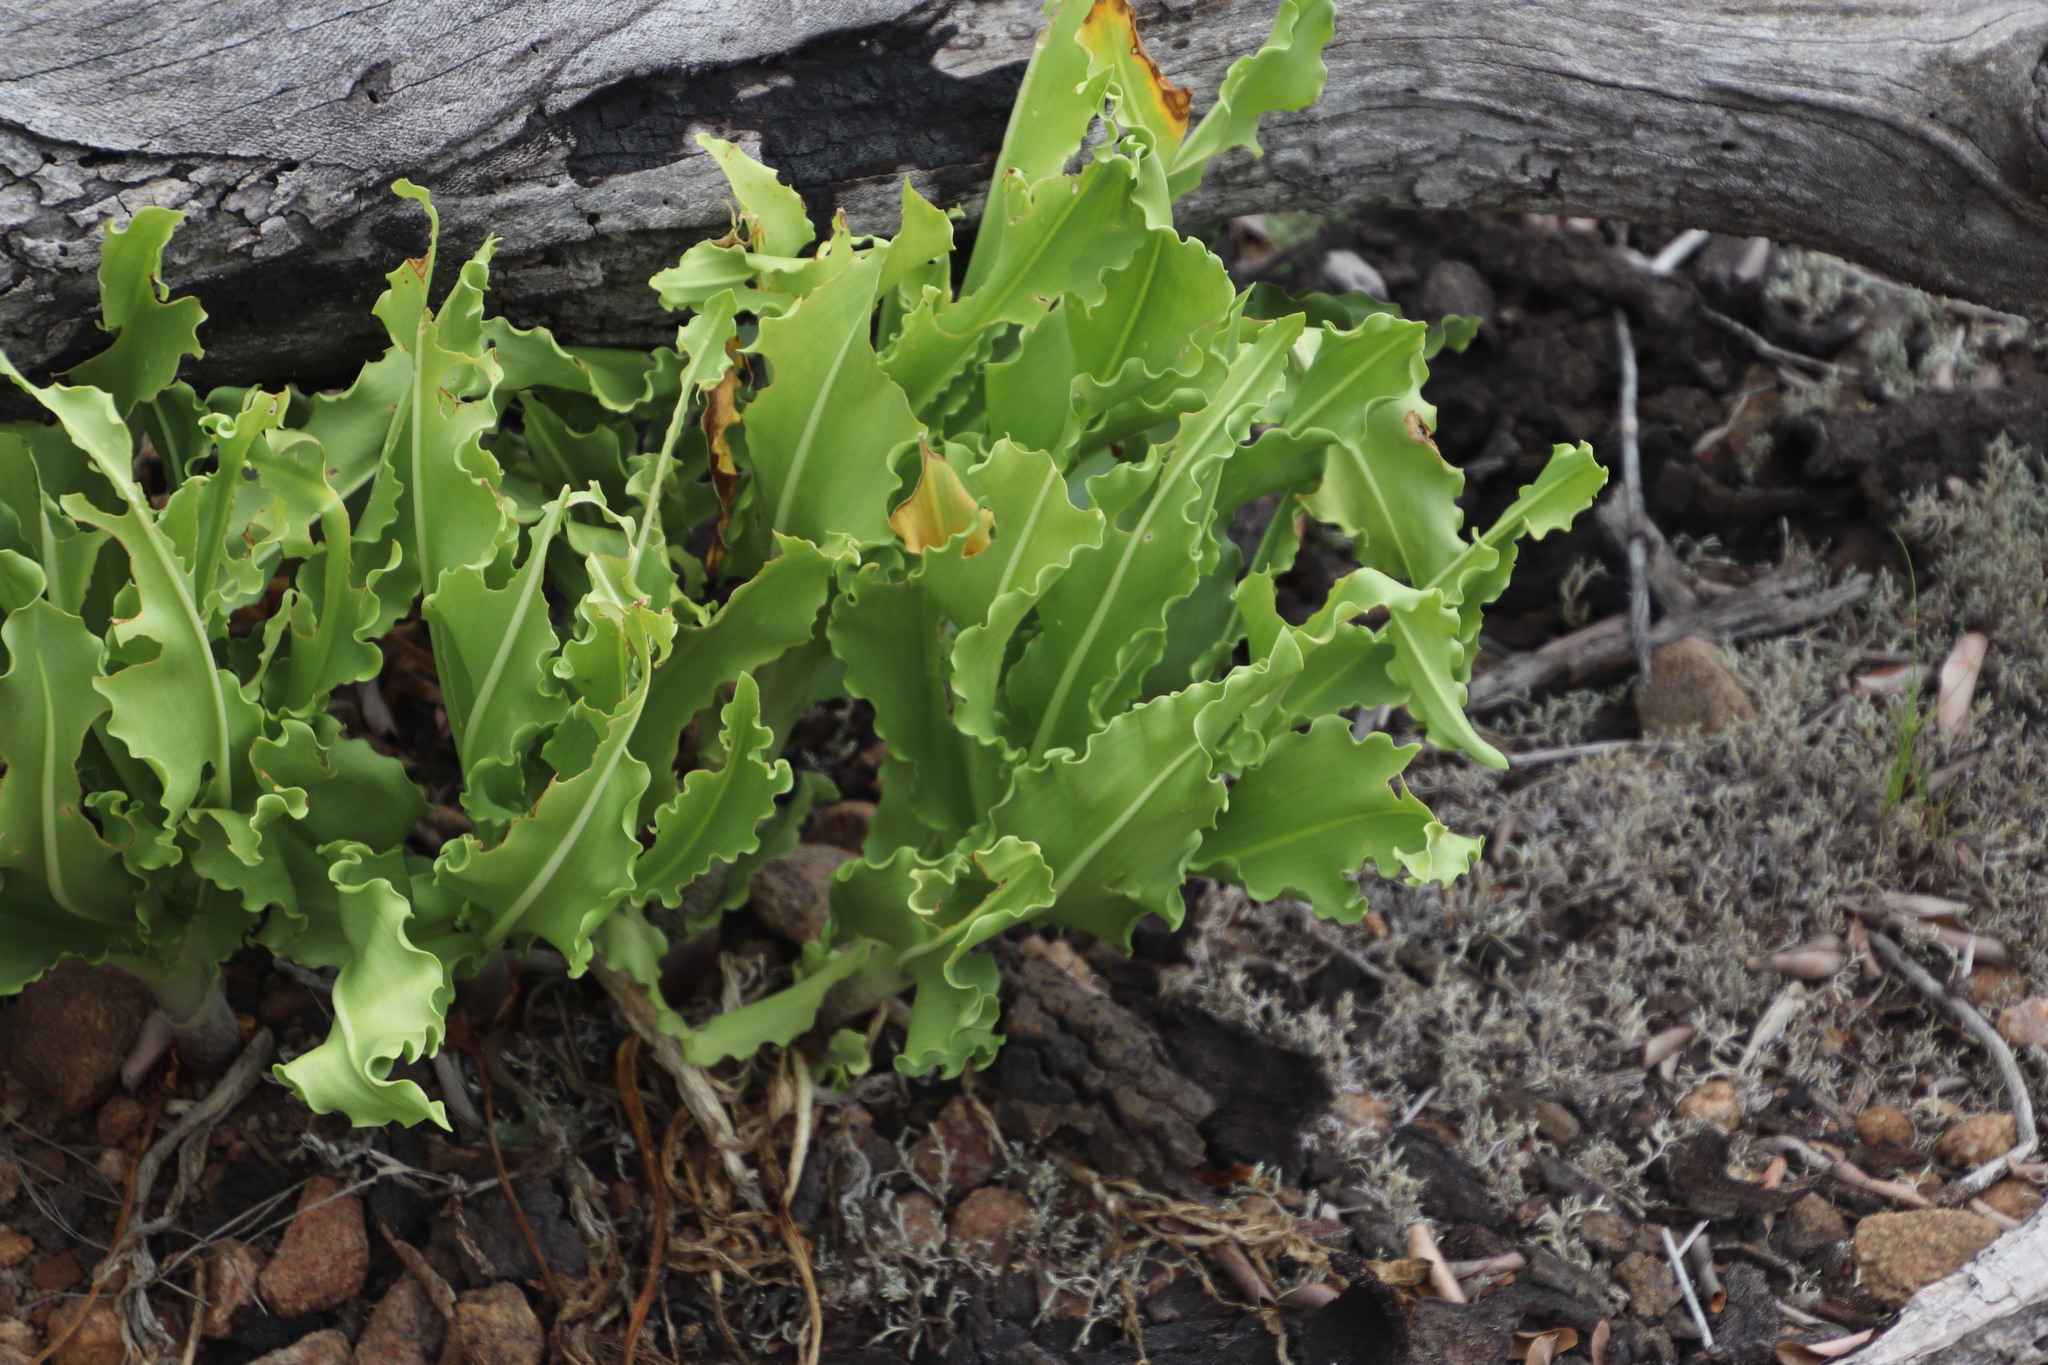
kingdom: Plantae
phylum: Tracheophyta
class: Liliopsida
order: Asparagales
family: Amaryllidaceae
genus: Scadoxus
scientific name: Scadoxus puniceus
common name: Royal-paintbrush
